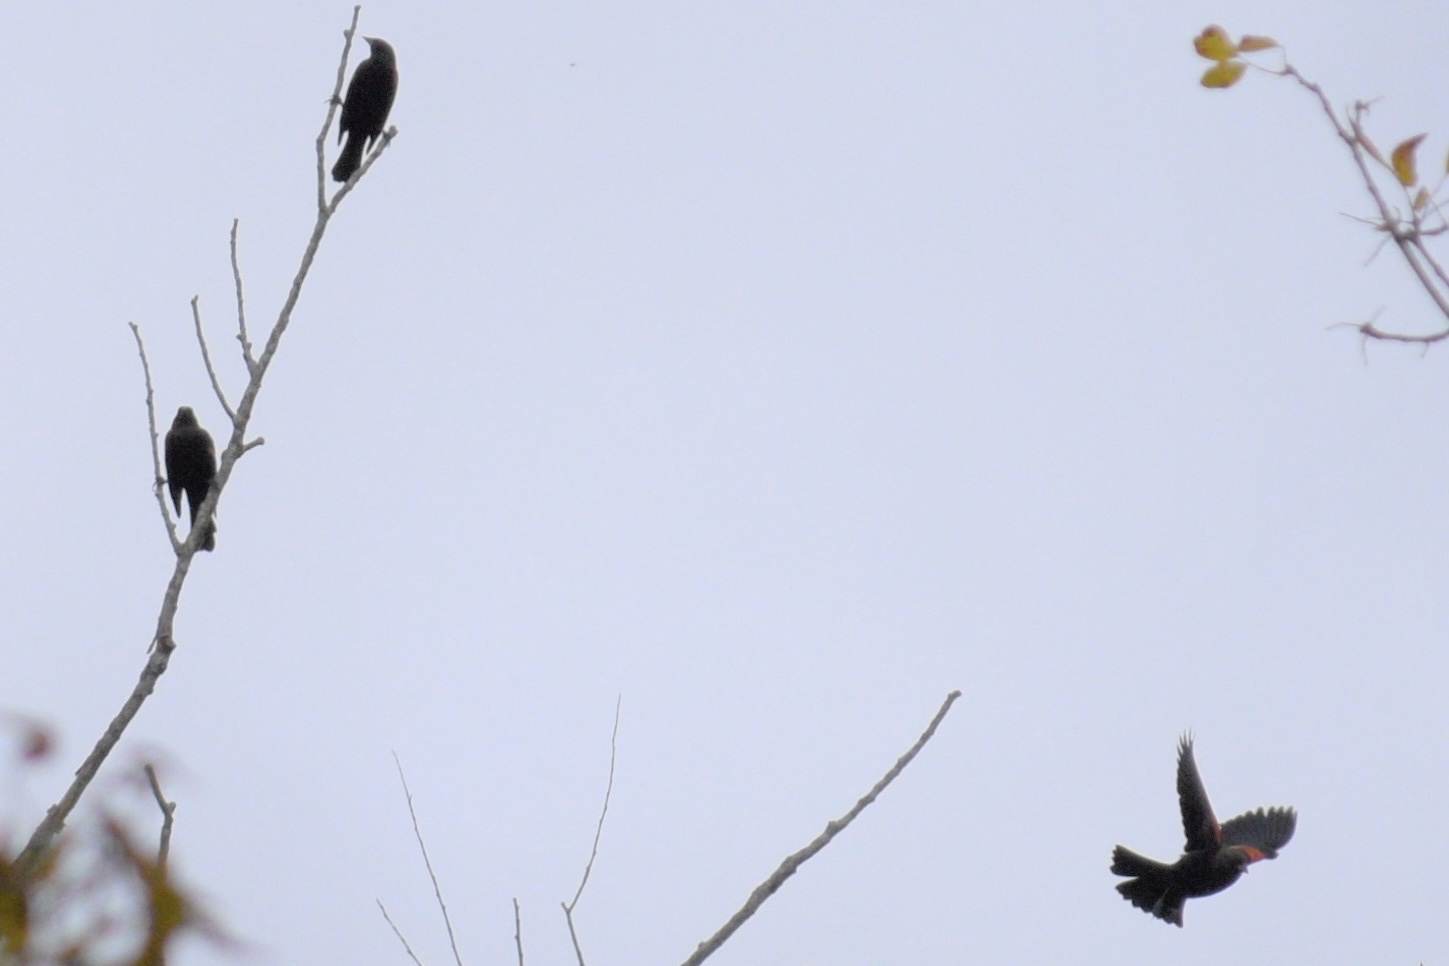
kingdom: Animalia
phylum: Chordata
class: Aves
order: Passeriformes
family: Icteridae
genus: Agelaius
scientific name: Agelaius phoeniceus
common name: Red-winged blackbird
